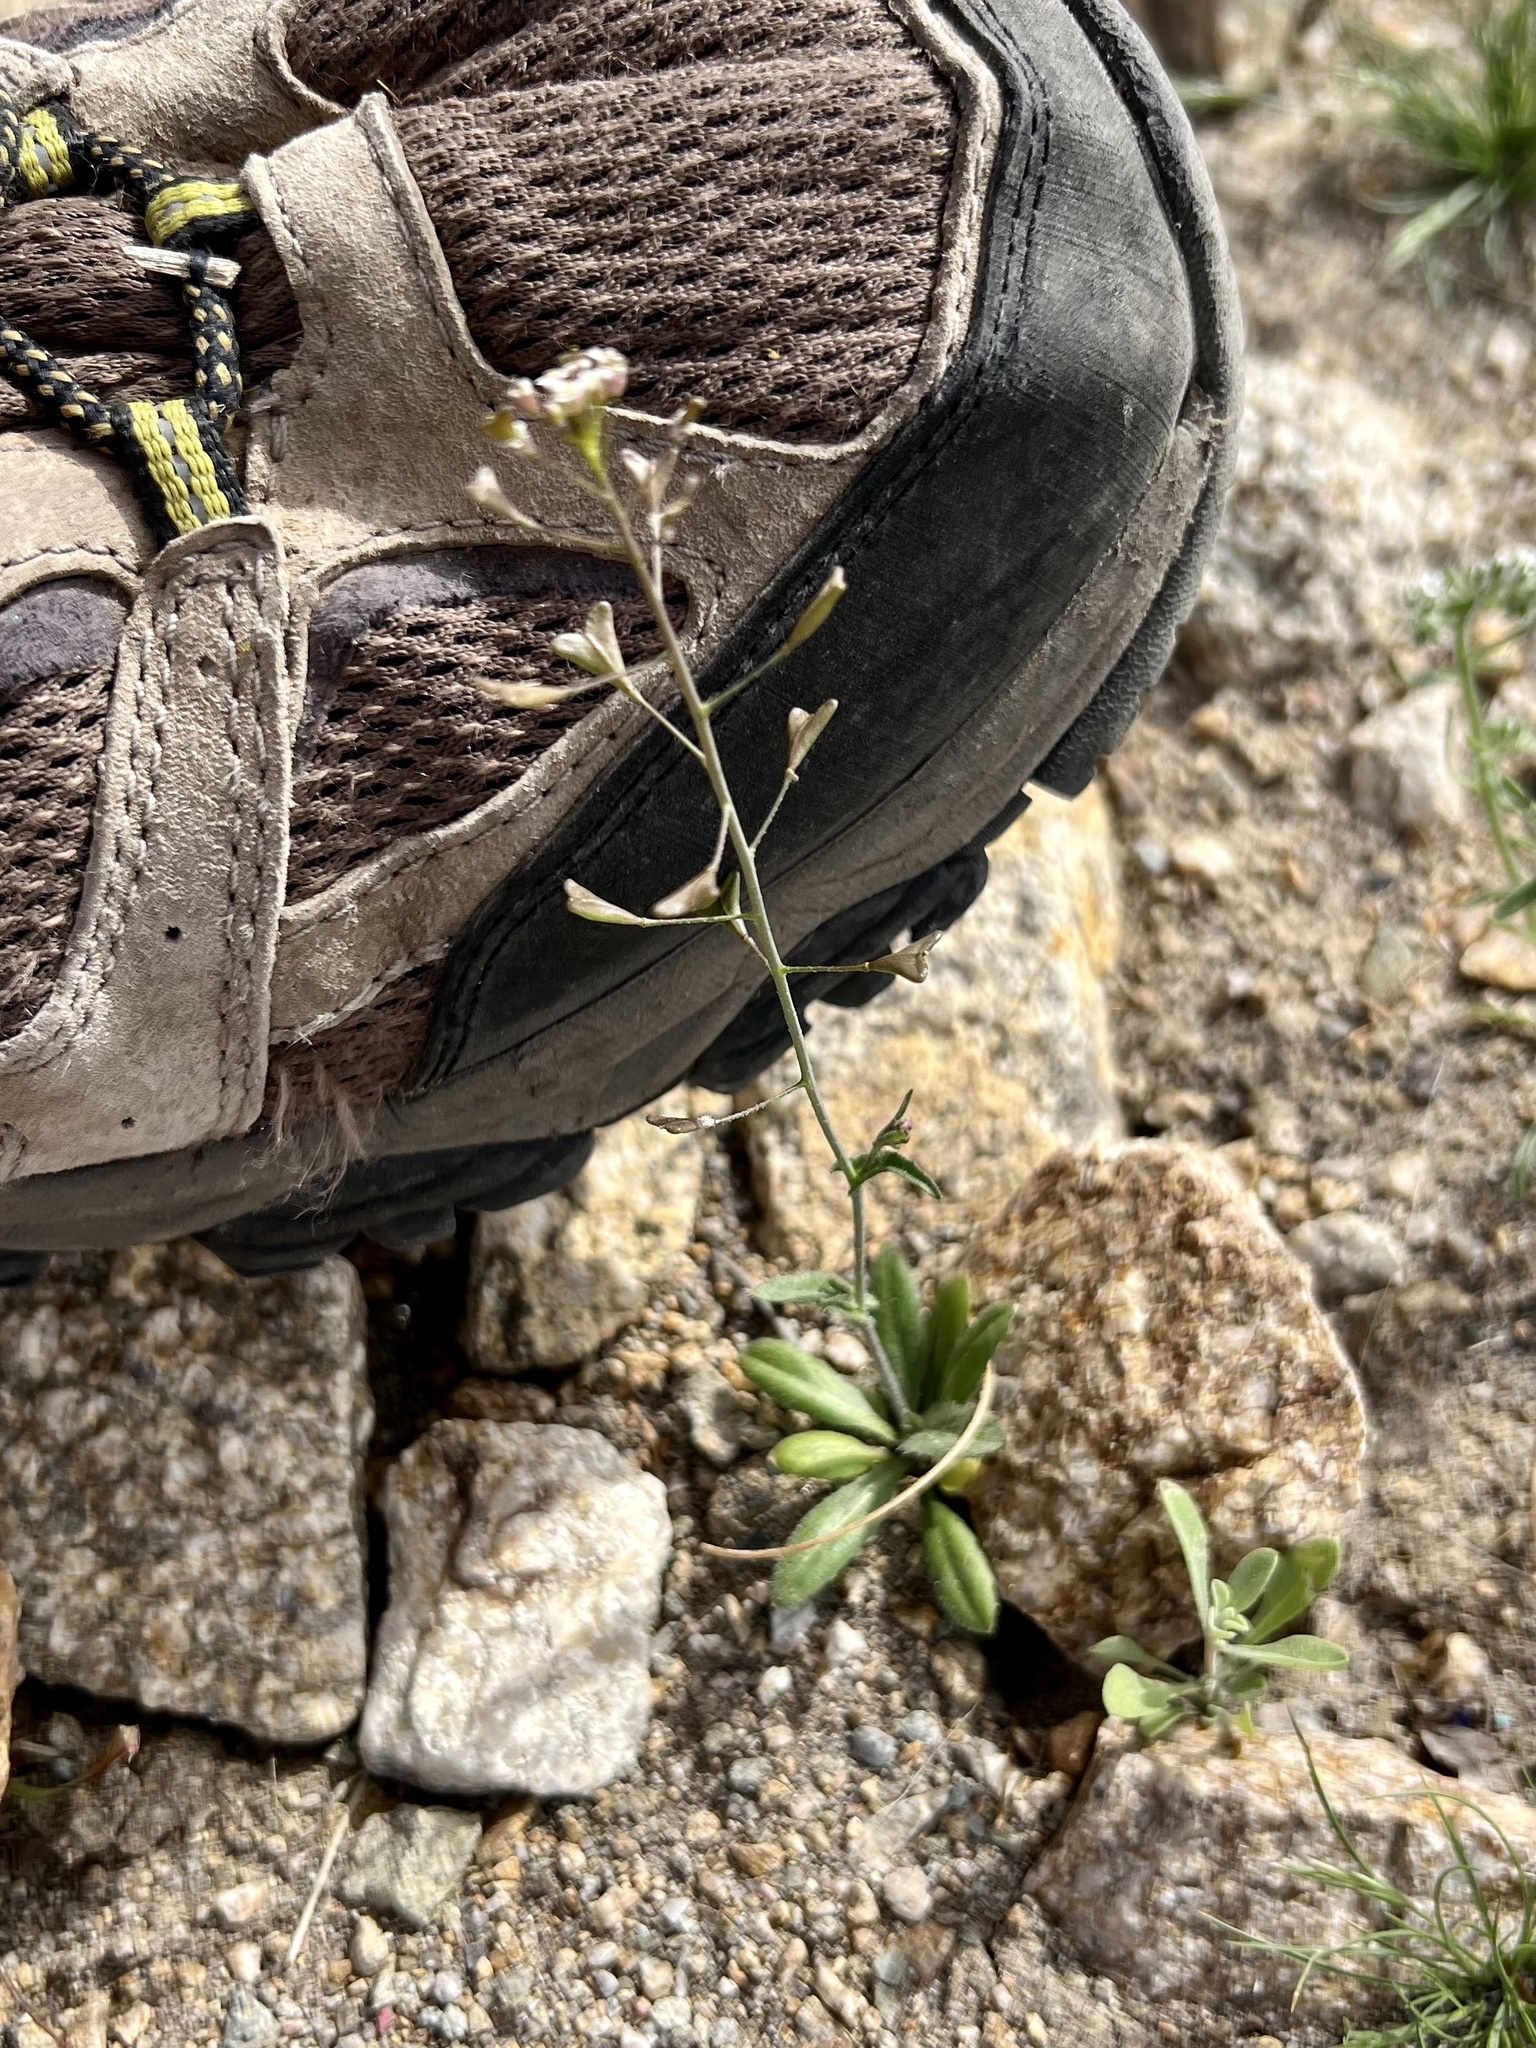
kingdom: Plantae
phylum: Tracheophyta
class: Magnoliopsida
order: Brassicales
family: Brassicaceae
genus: Capsella
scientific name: Capsella bursa-pastoris
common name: Shepherd's purse
